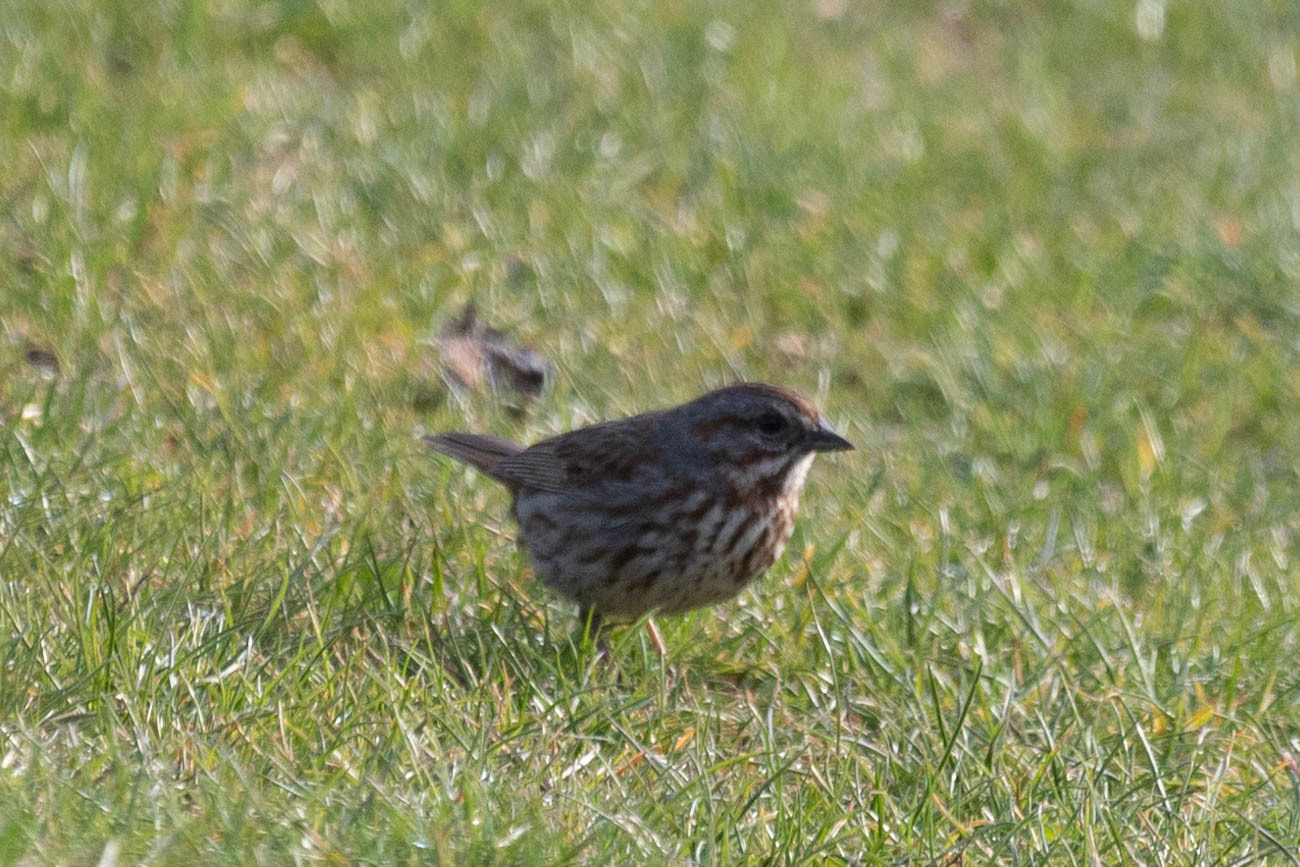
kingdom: Animalia
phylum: Chordata
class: Aves
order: Passeriformes
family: Passerellidae
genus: Melospiza
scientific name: Melospiza melodia
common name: Song sparrow
